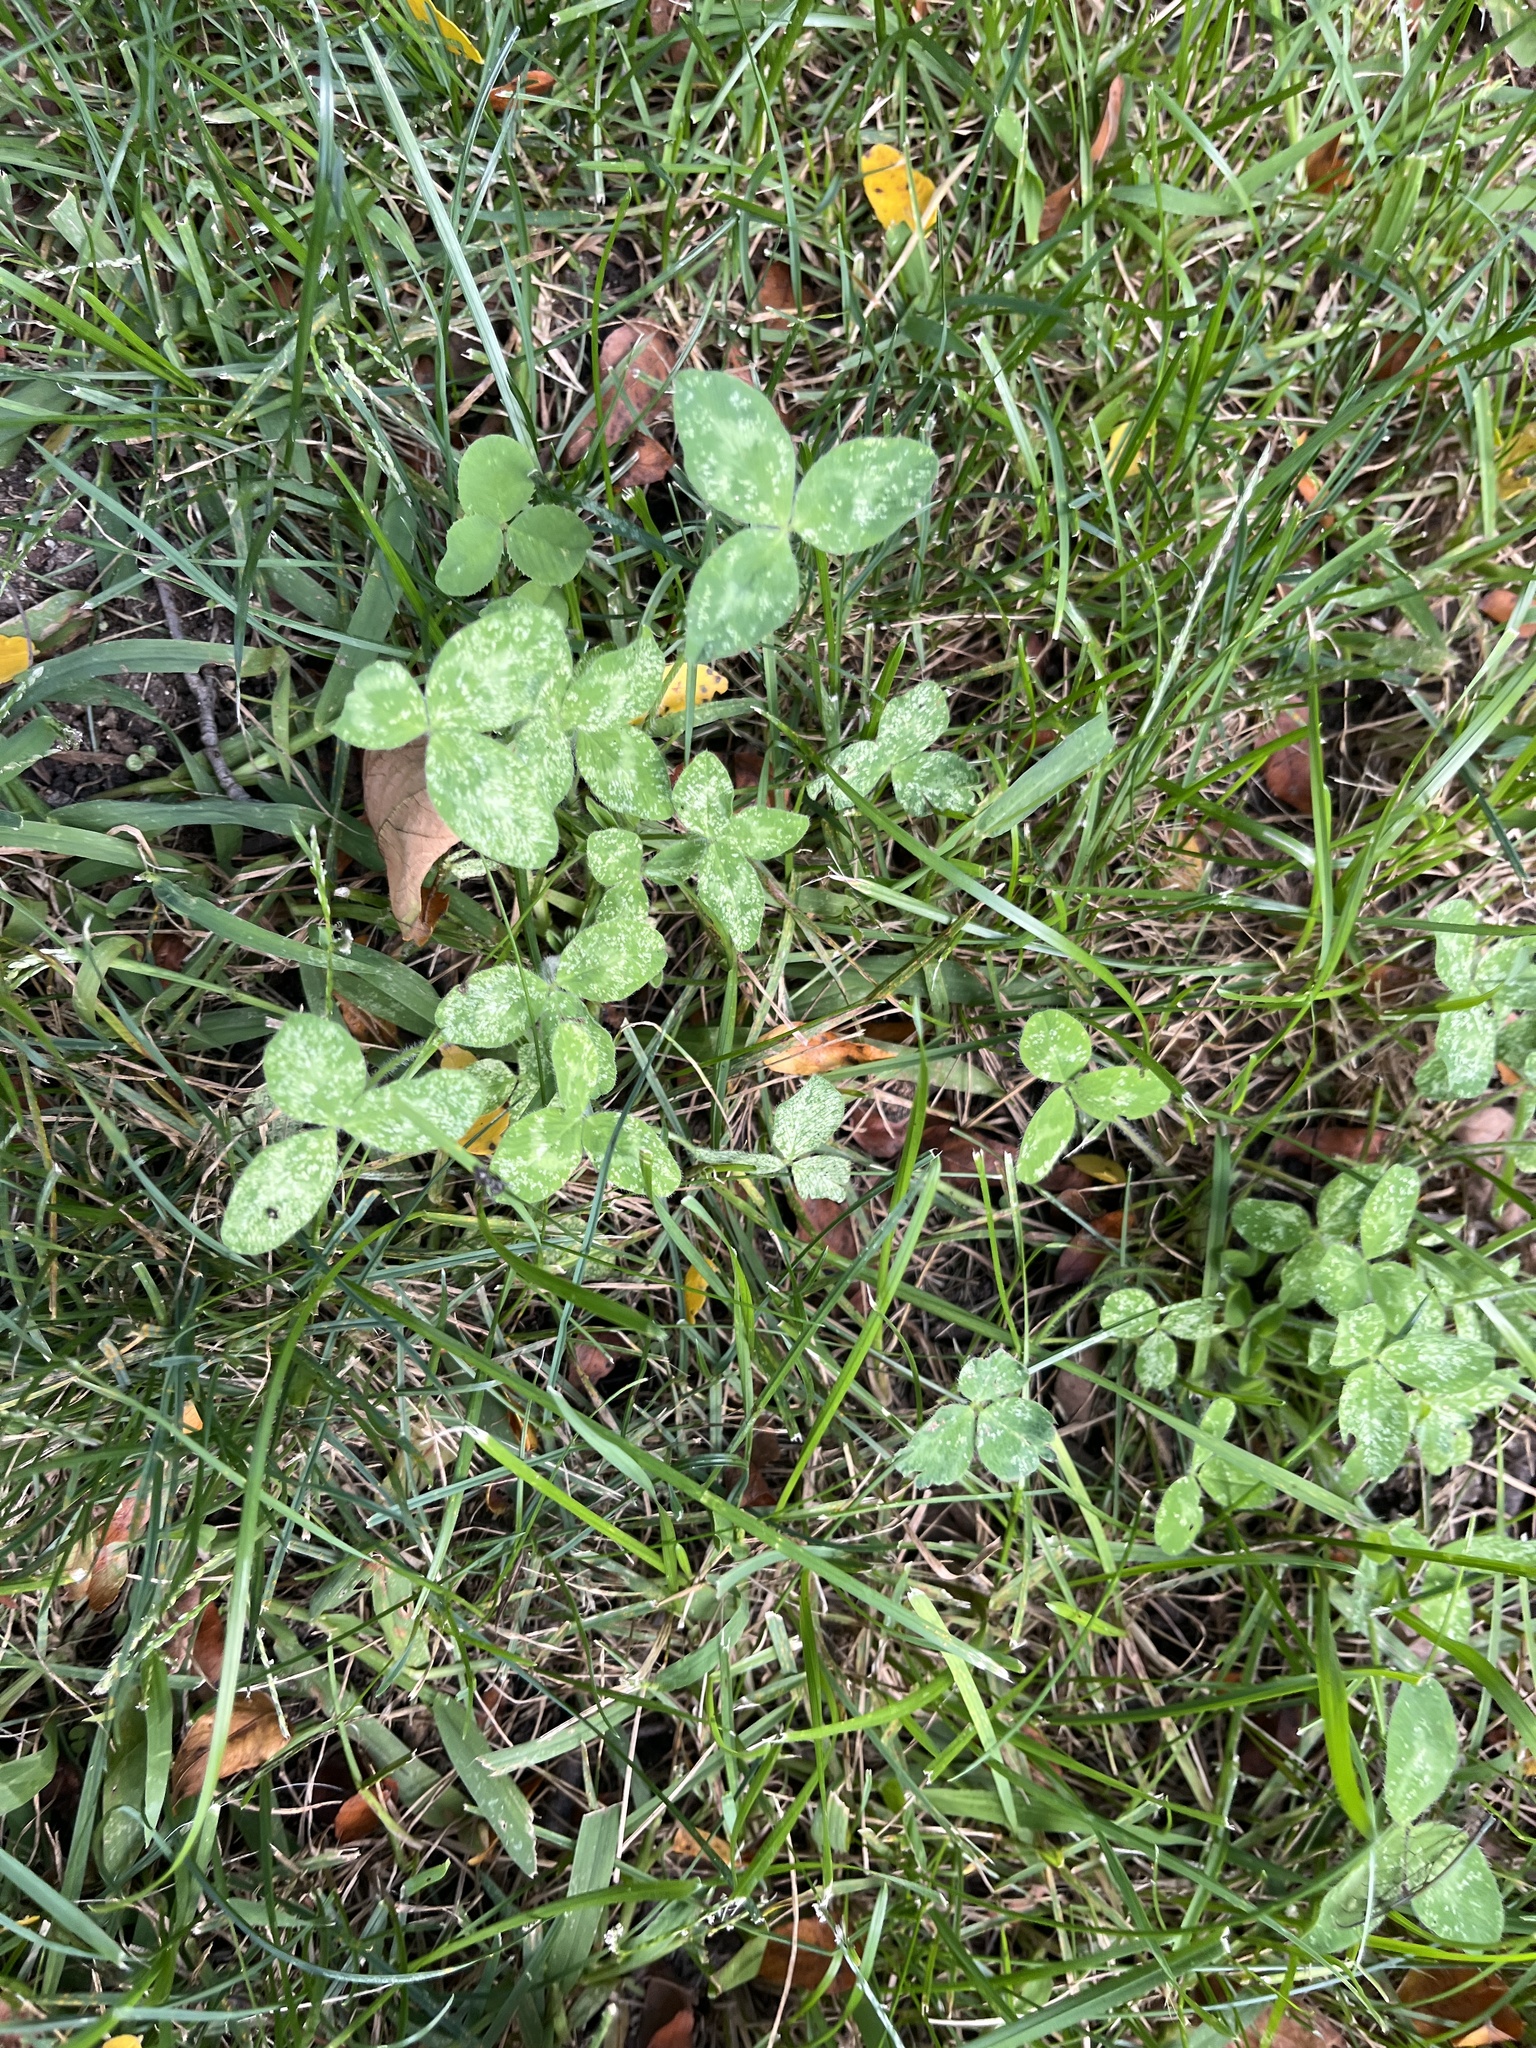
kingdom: Plantae
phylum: Tracheophyta
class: Magnoliopsida
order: Fabales
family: Fabaceae
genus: Trifolium
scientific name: Trifolium pratense
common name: Red clover
